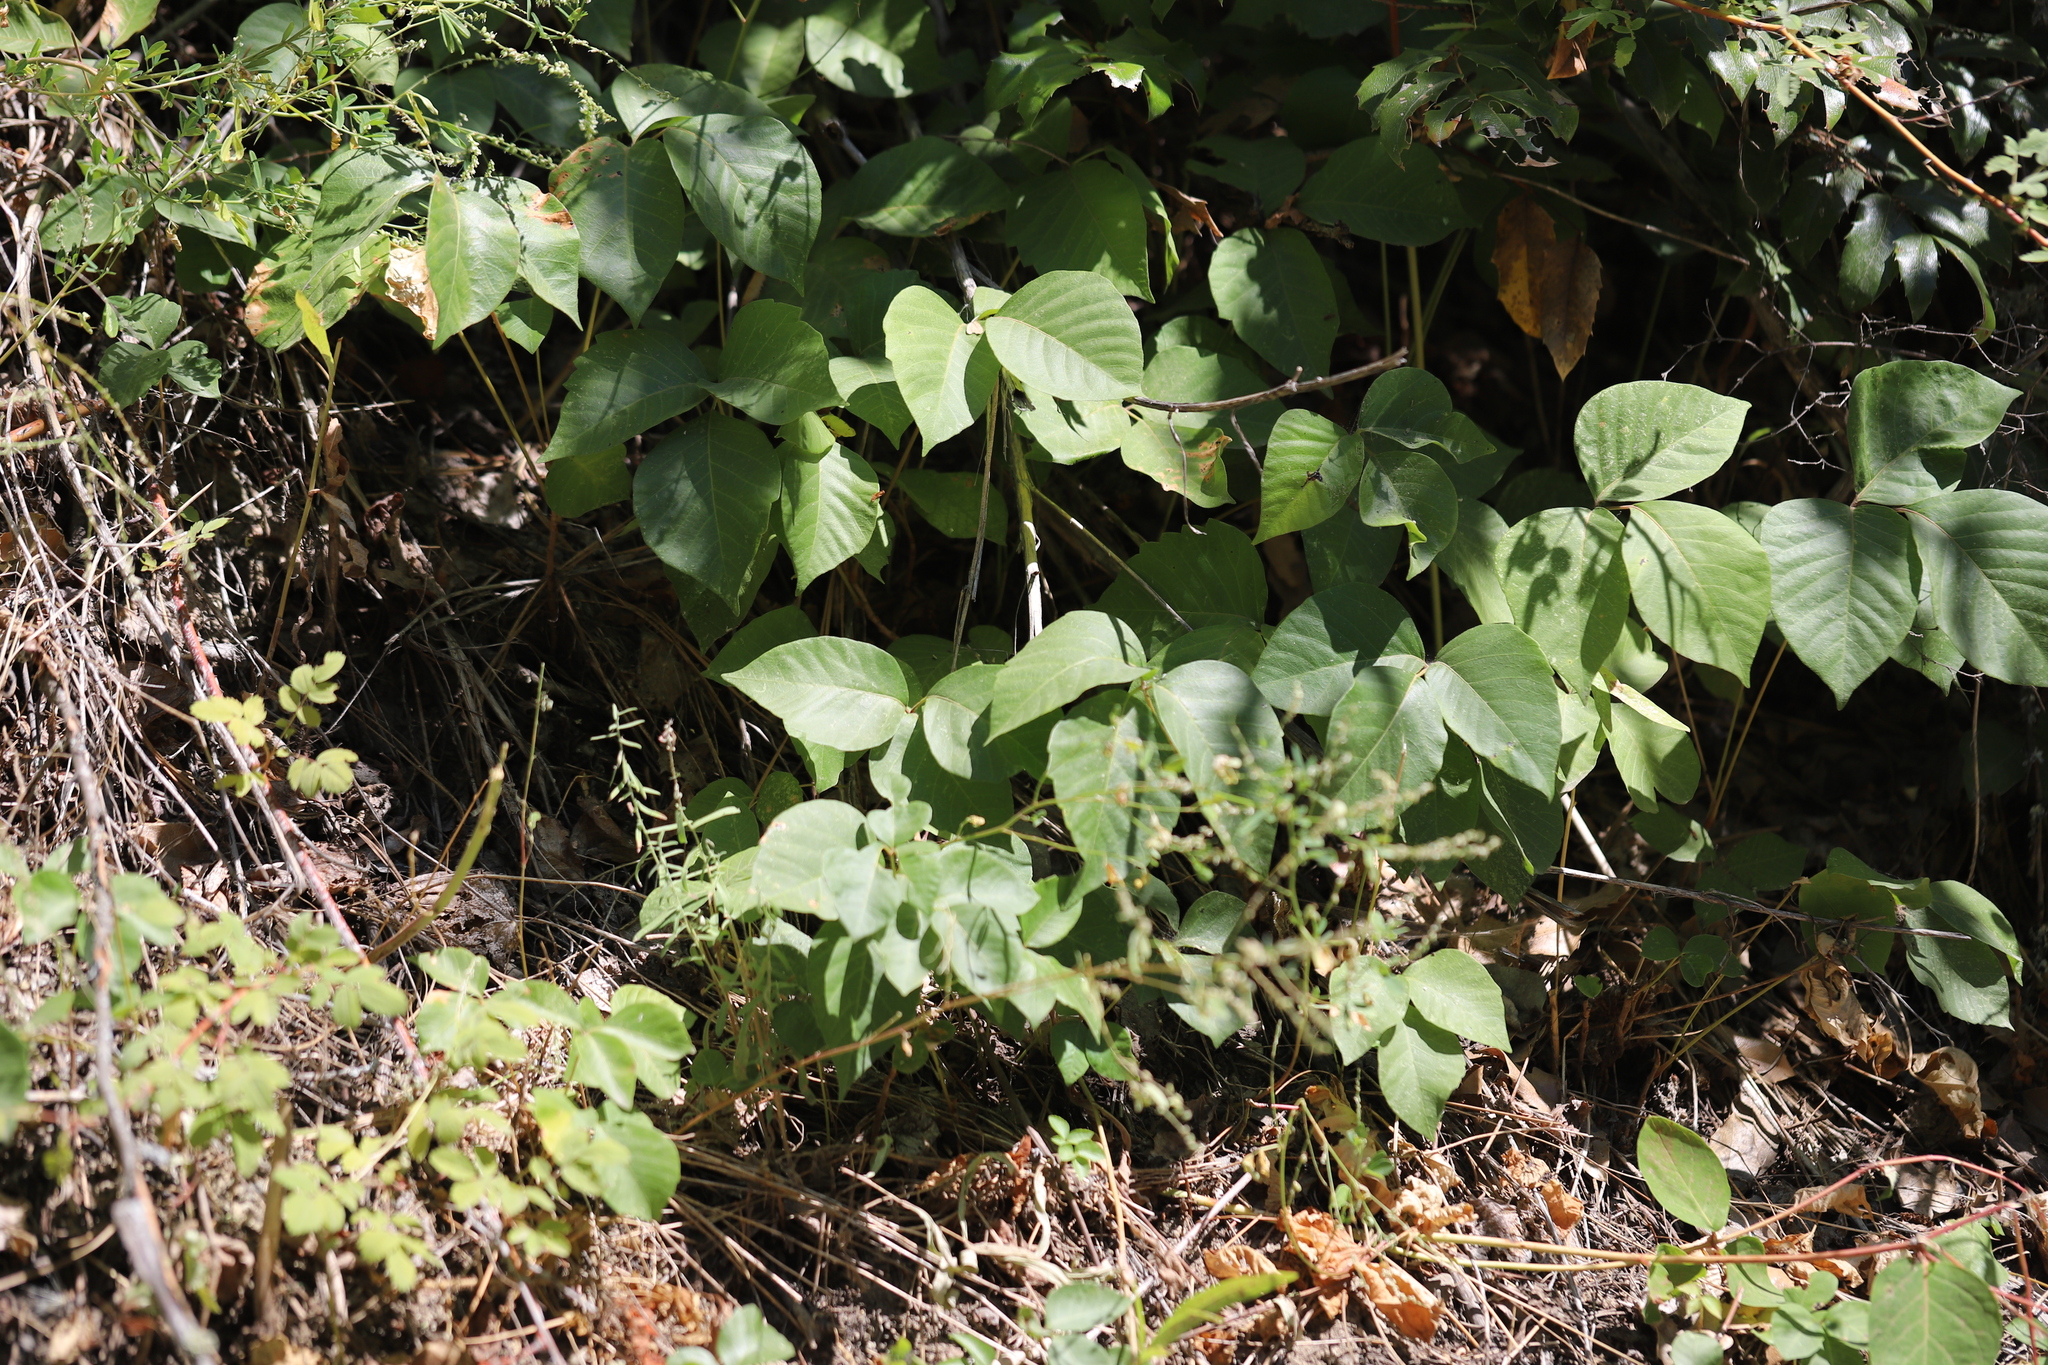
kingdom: Plantae
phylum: Tracheophyta
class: Magnoliopsida
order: Sapindales
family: Anacardiaceae
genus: Toxicodendron
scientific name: Toxicodendron rydbergii
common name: Rydberg's poison-ivy
